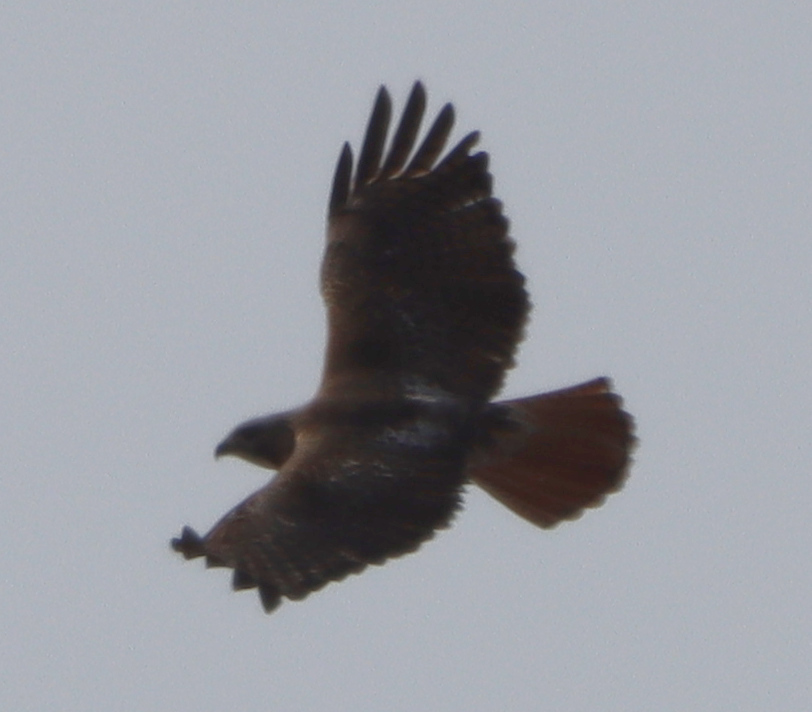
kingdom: Animalia
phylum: Chordata
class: Aves
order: Accipitriformes
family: Accipitridae
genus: Buteo
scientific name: Buteo jamaicensis
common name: Red-tailed hawk
